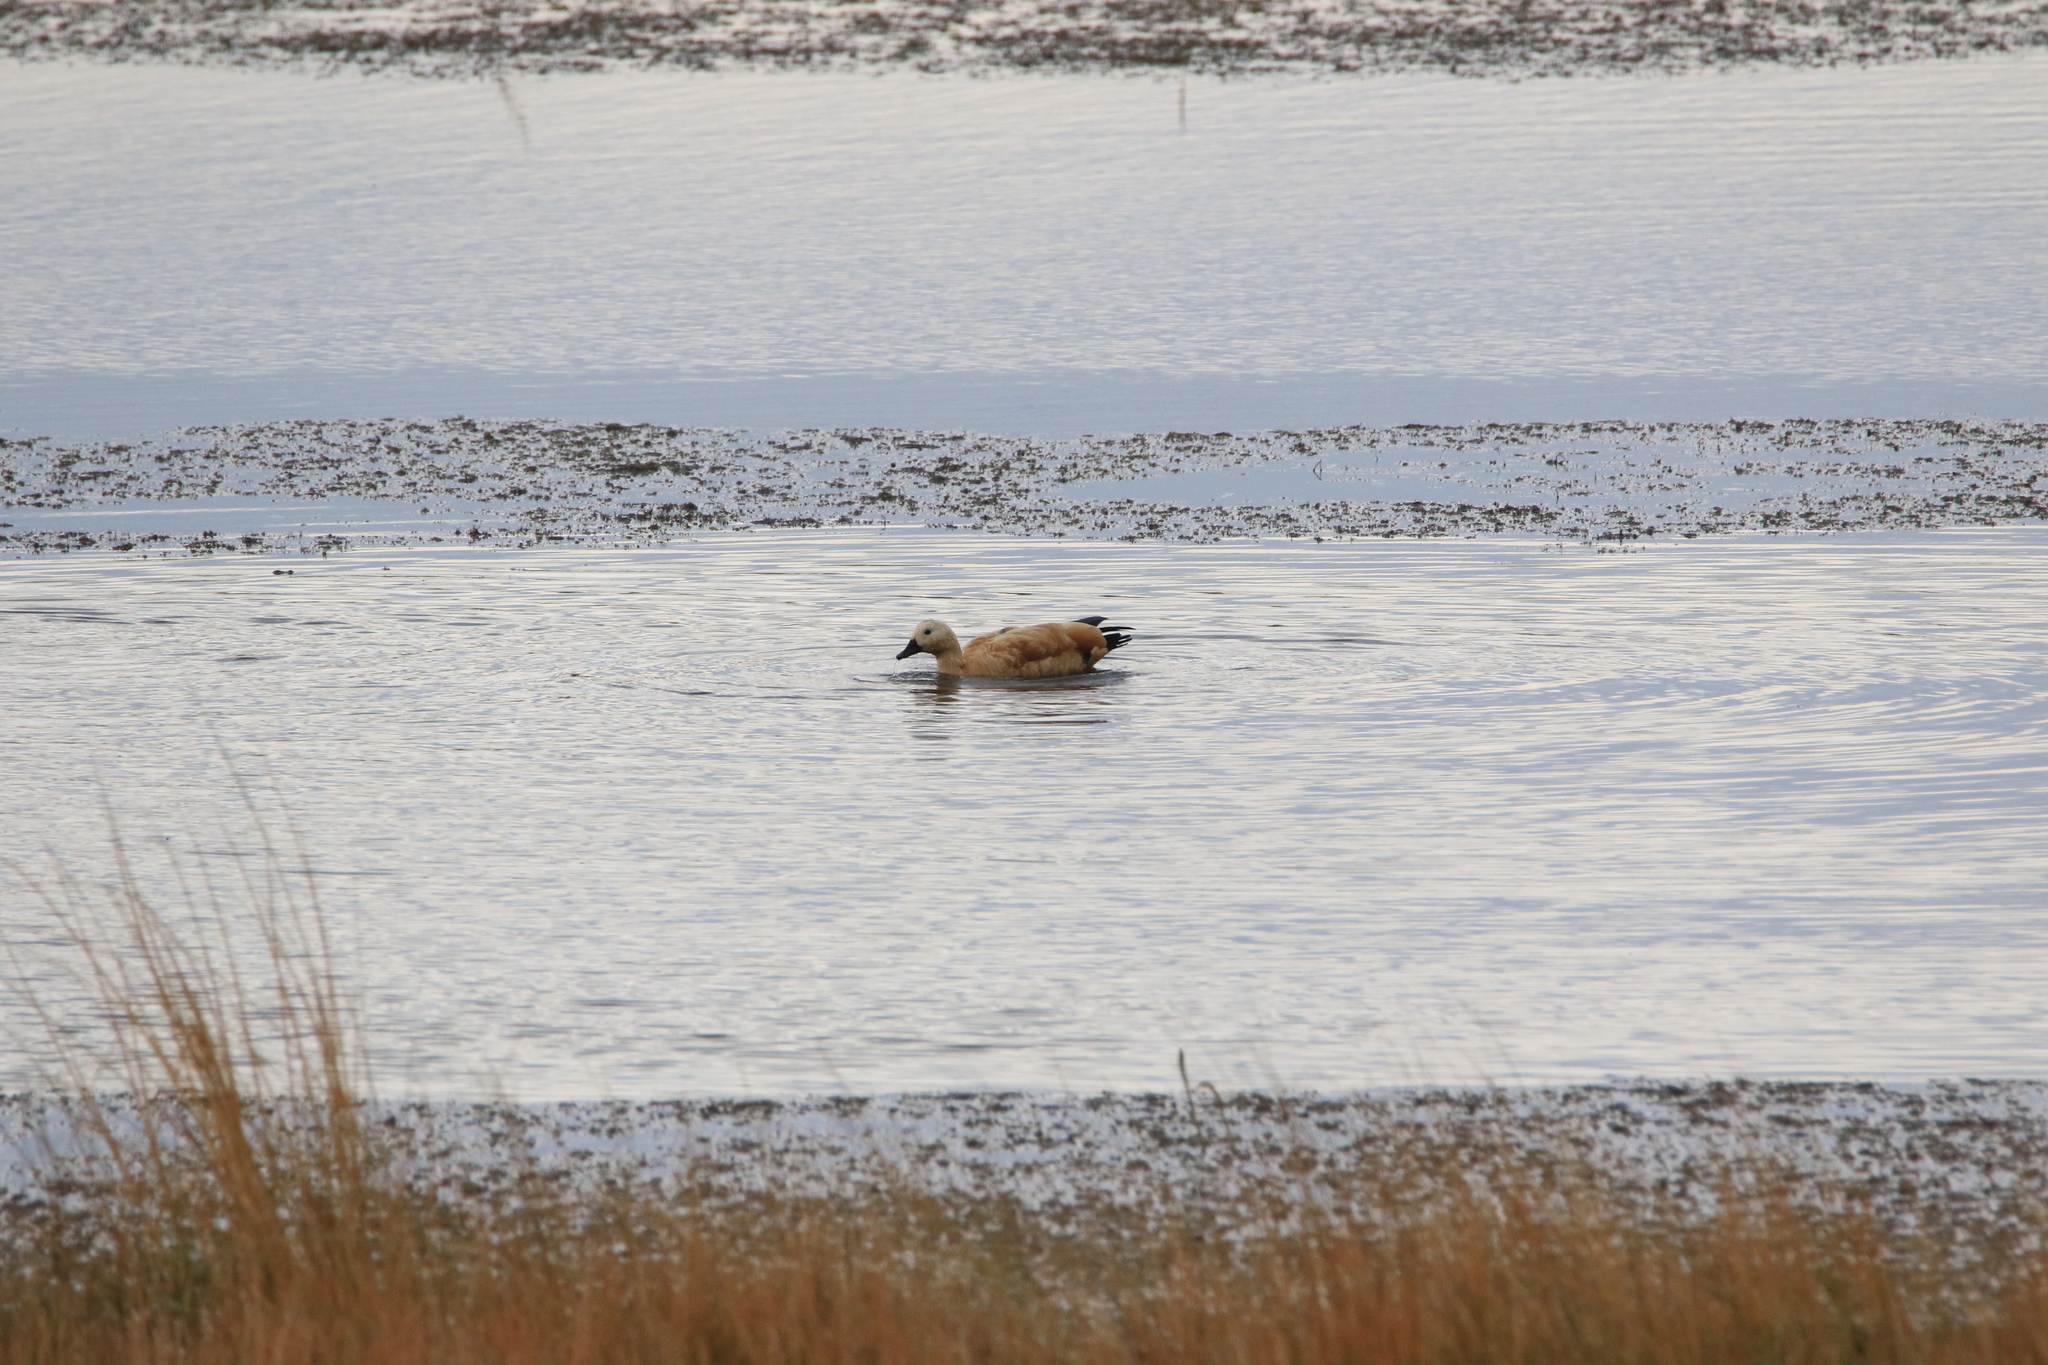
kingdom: Animalia
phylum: Chordata
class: Aves
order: Anseriformes
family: Anatidae
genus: Tadorna
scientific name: Tadorna ferruginea
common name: Ruddy shelduck
